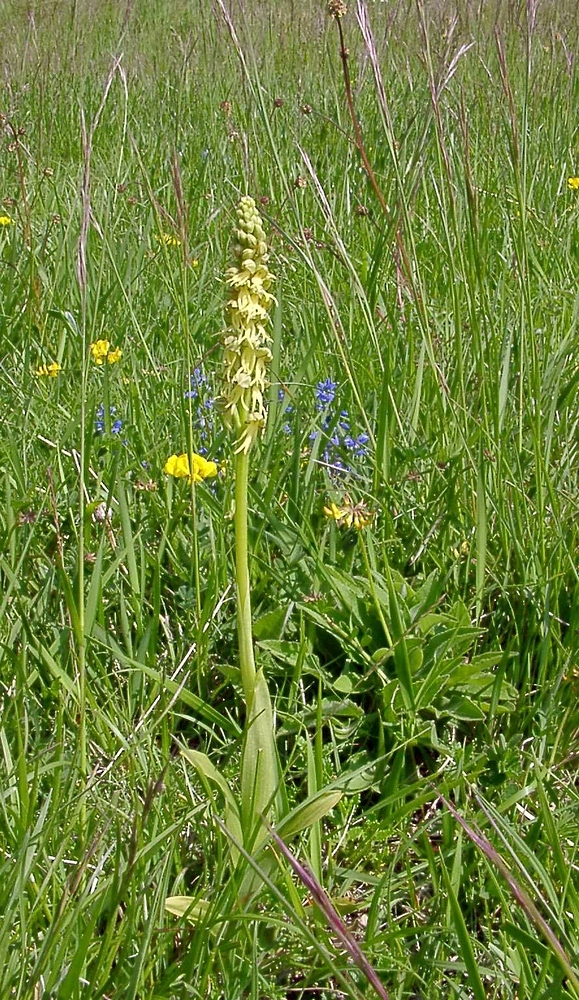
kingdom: Plantae
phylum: Tracheophyta
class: Liliopsida
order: Asparagales
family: Orchidaceae
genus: Orchis
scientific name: Orchis anthropophora
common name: Man orchid
